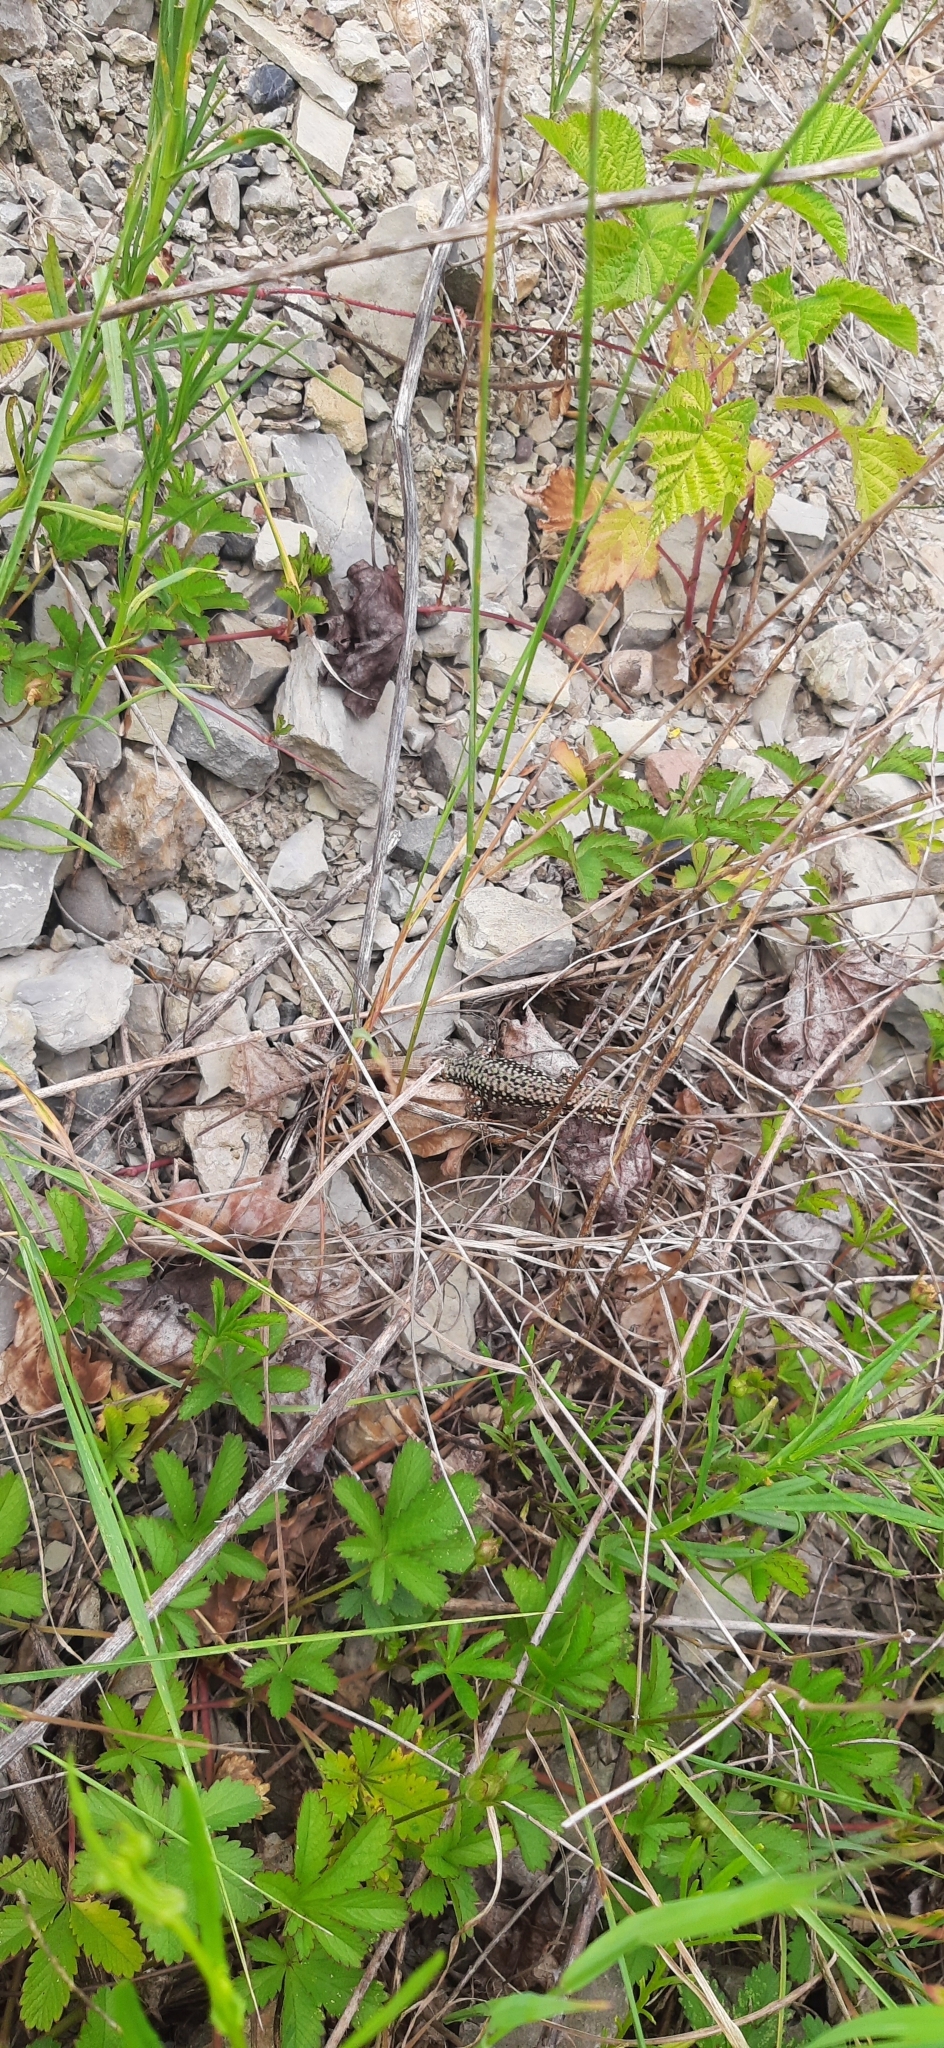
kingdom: Animalia
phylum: Chordata
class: Squamata
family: Lacertidae
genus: Podarcis
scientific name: Podarcis muralis
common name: Common wall lizard
